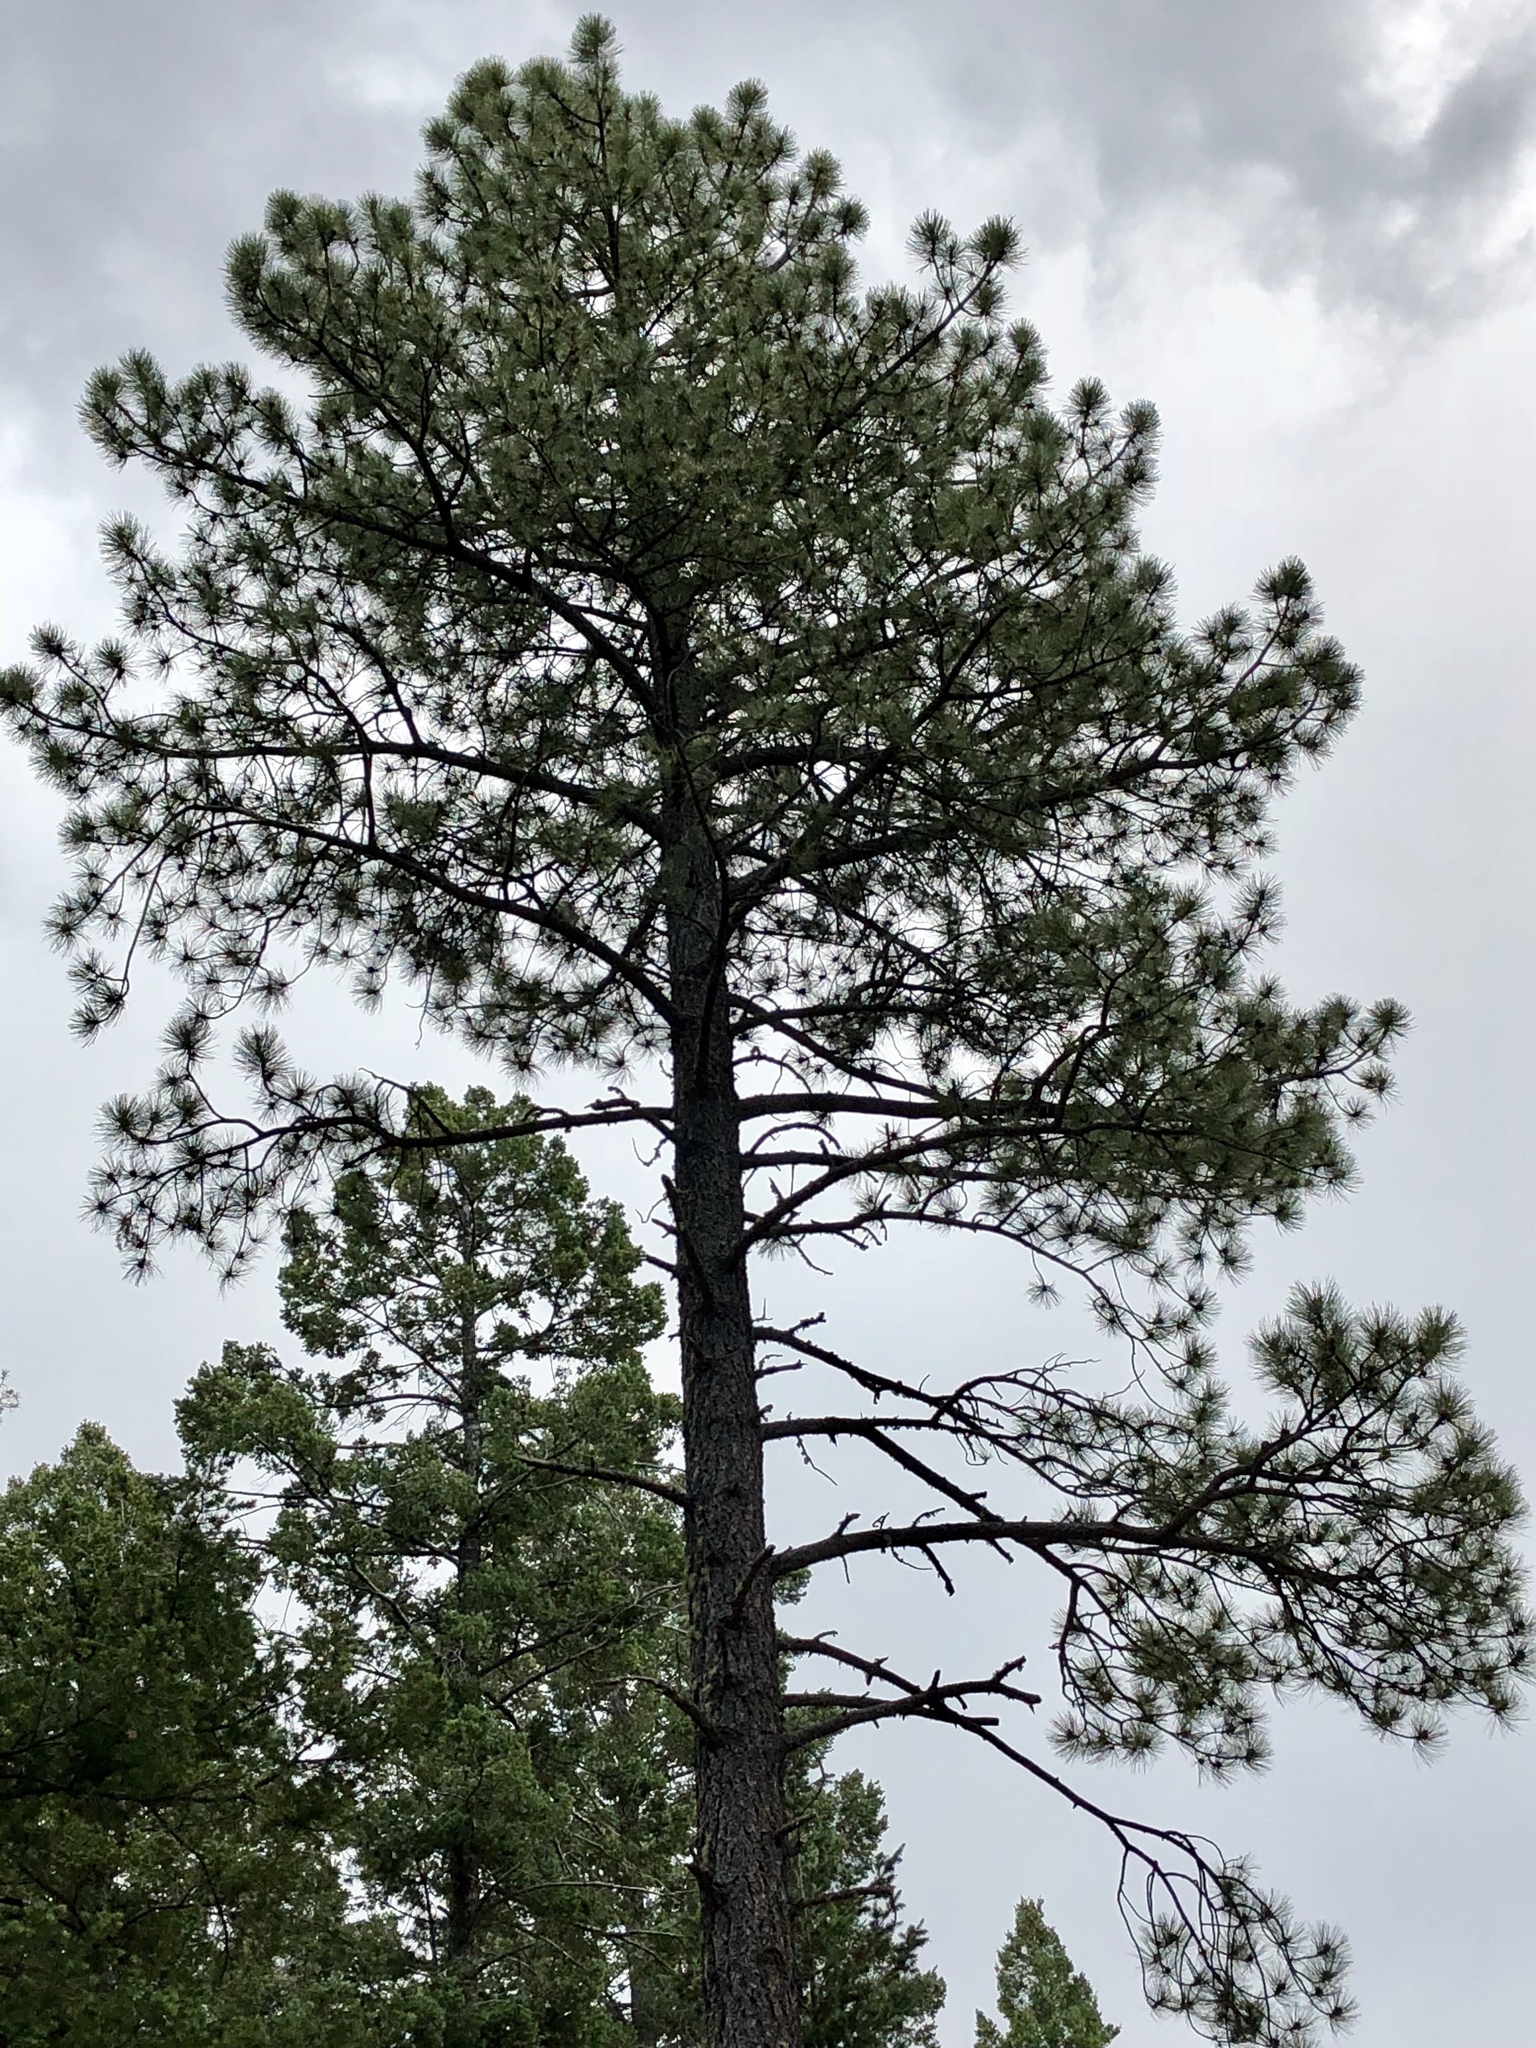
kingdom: Plantae
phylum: Tracheophyta
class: Pinopsida
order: Pinales
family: Pinaceae
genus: Pinus
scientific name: Pinus ponderosa
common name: Western yellow-pine
